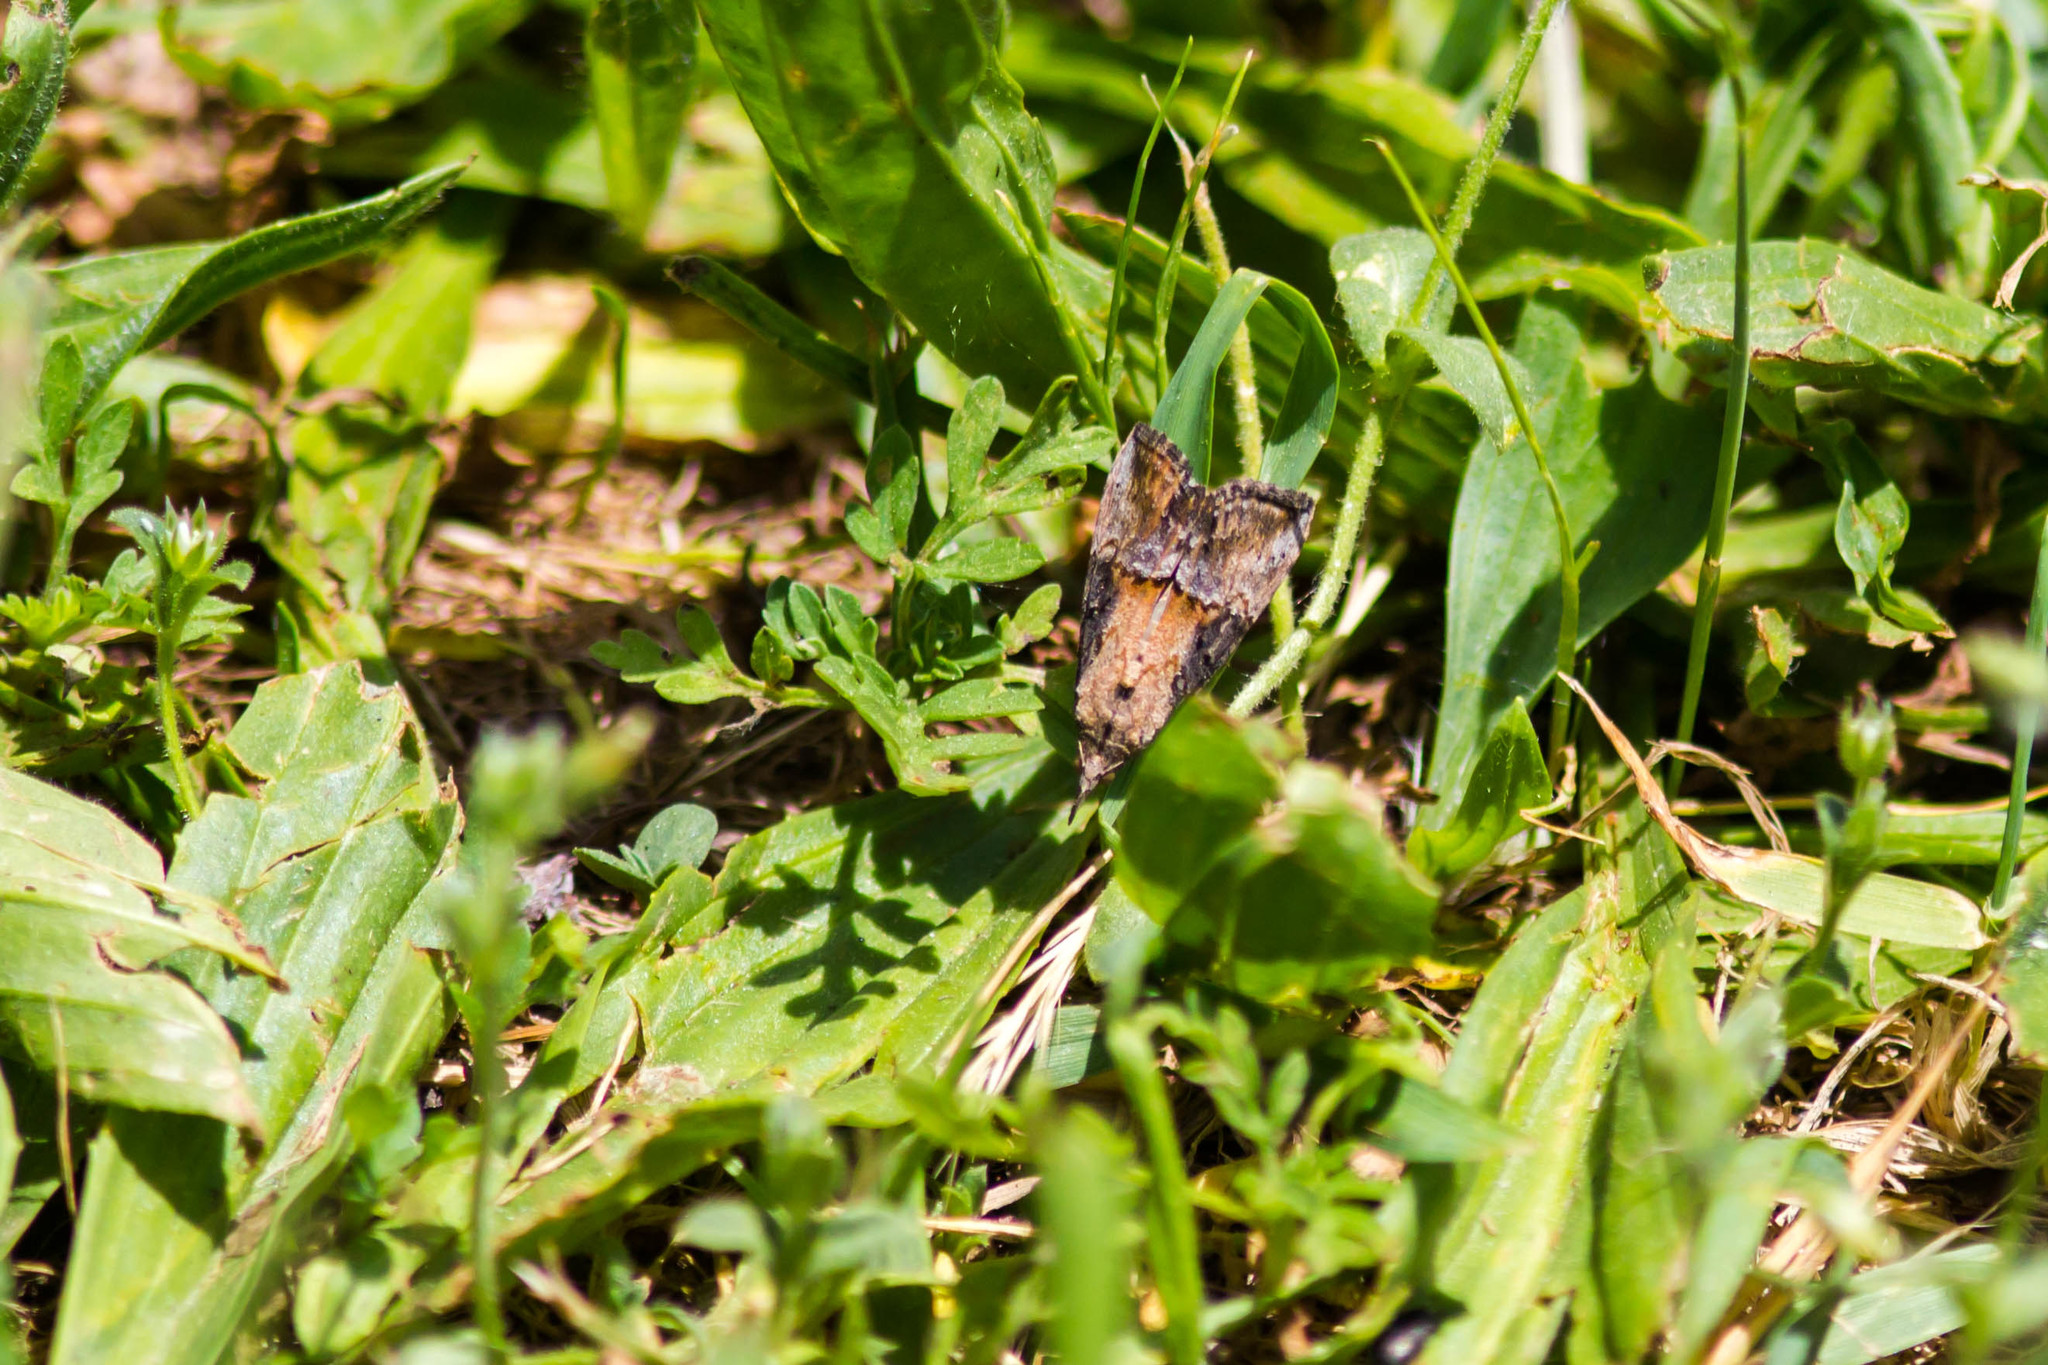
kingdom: Animalia
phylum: Arthropoda
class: Insecta
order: Lepidoptera
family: Erebidae
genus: Hypena
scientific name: Hypena scabra
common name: Green cloverworm
